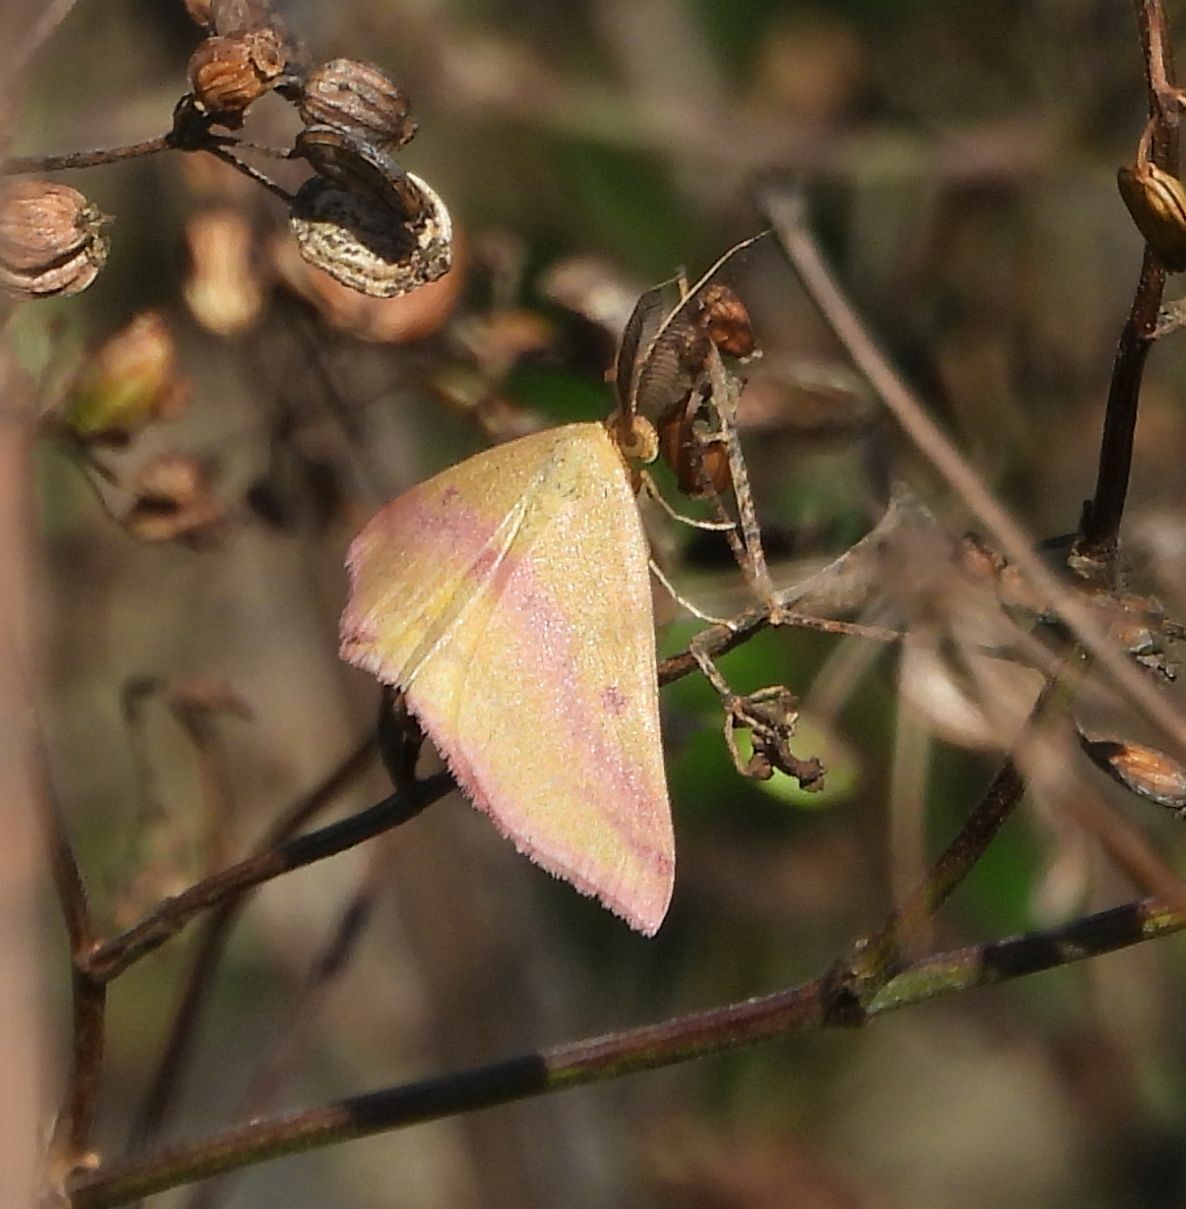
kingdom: Animalia
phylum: Arthropoda
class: Insecta
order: Lepidoptera
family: Geometridae
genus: Haematopis
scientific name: Haematopis grataria
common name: Chickweed geometer
